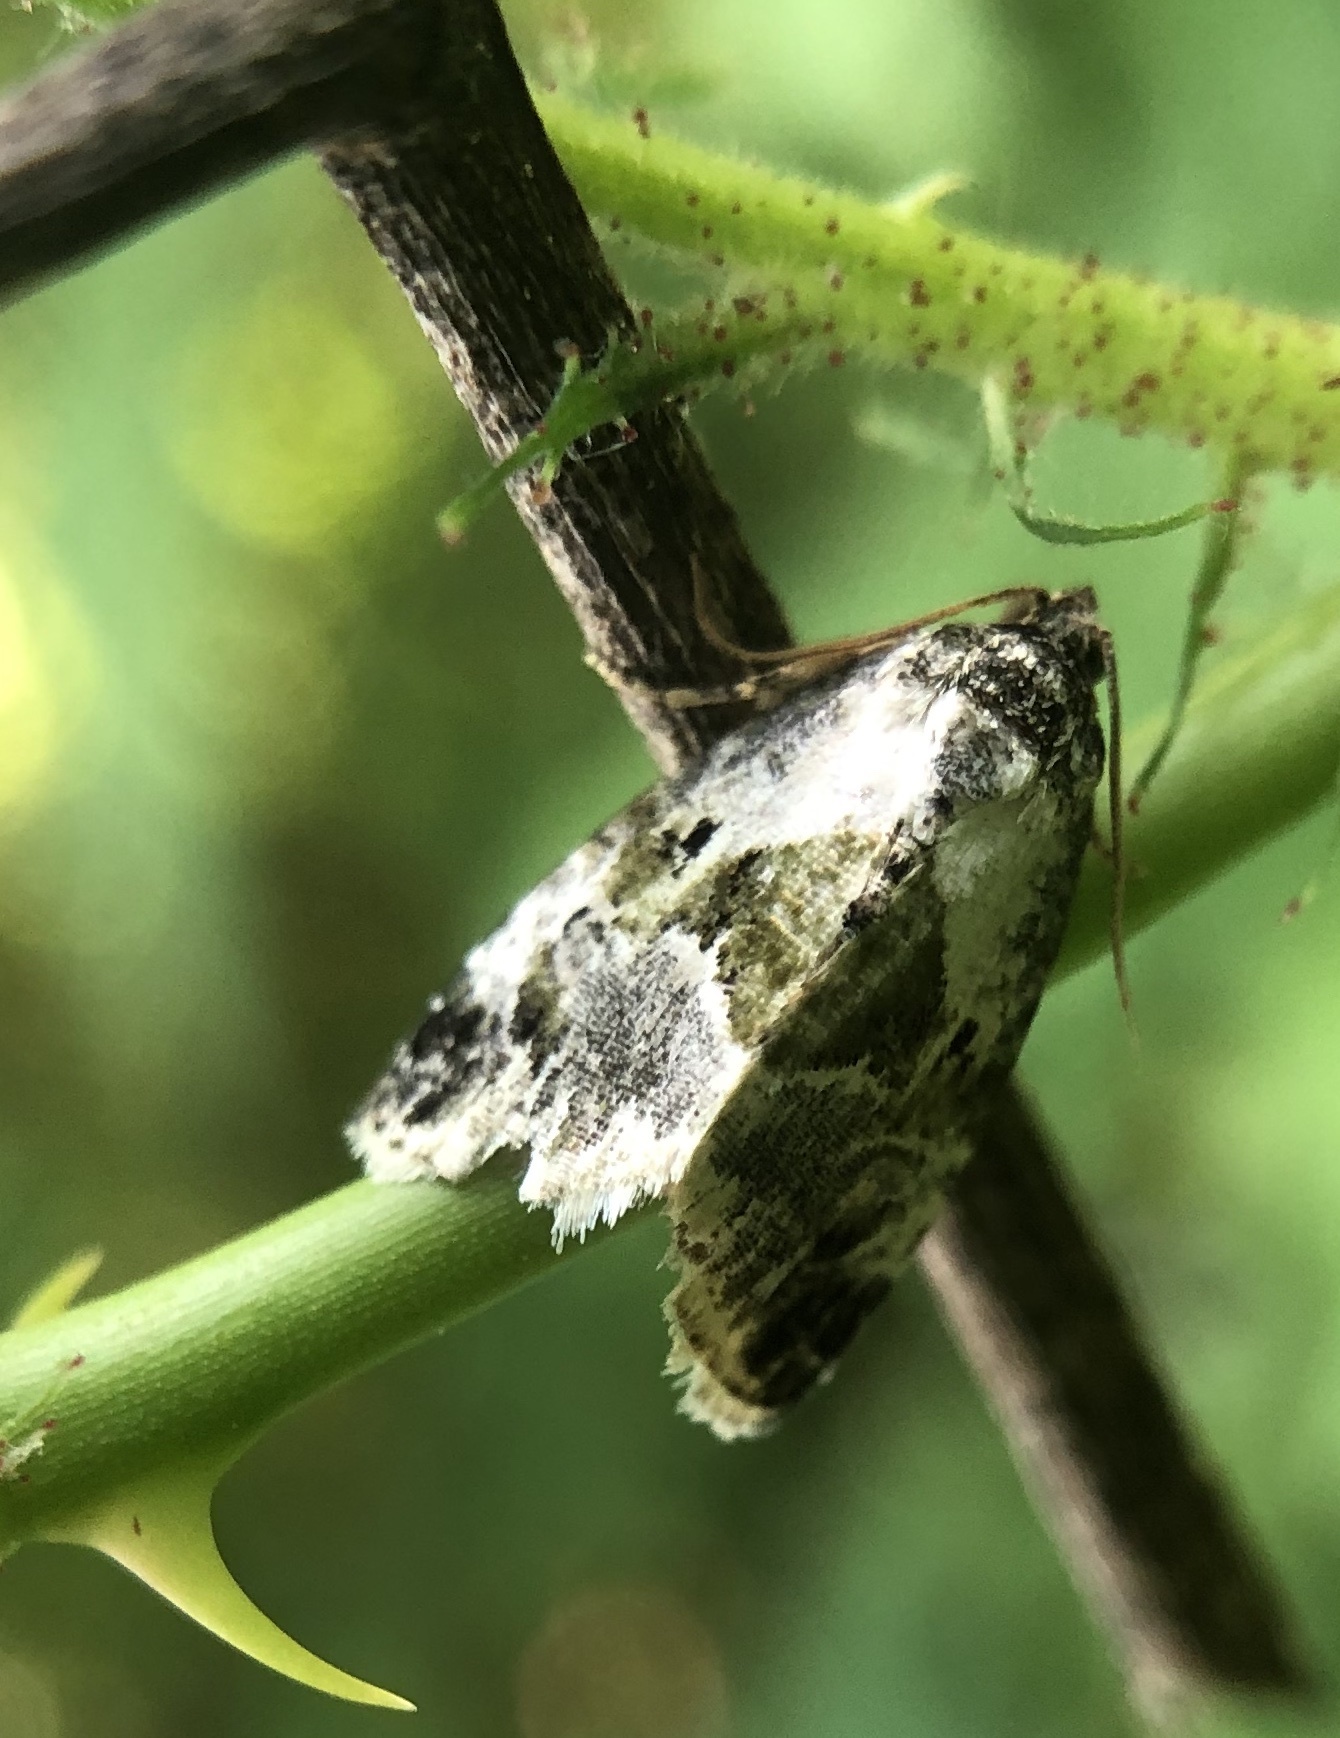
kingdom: Animalia
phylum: Arthropoda
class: Insecta
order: Lepidoptera
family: Noctuidae
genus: Maliattha
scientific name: Maliattha synochitis
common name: Black-dotted glyph
